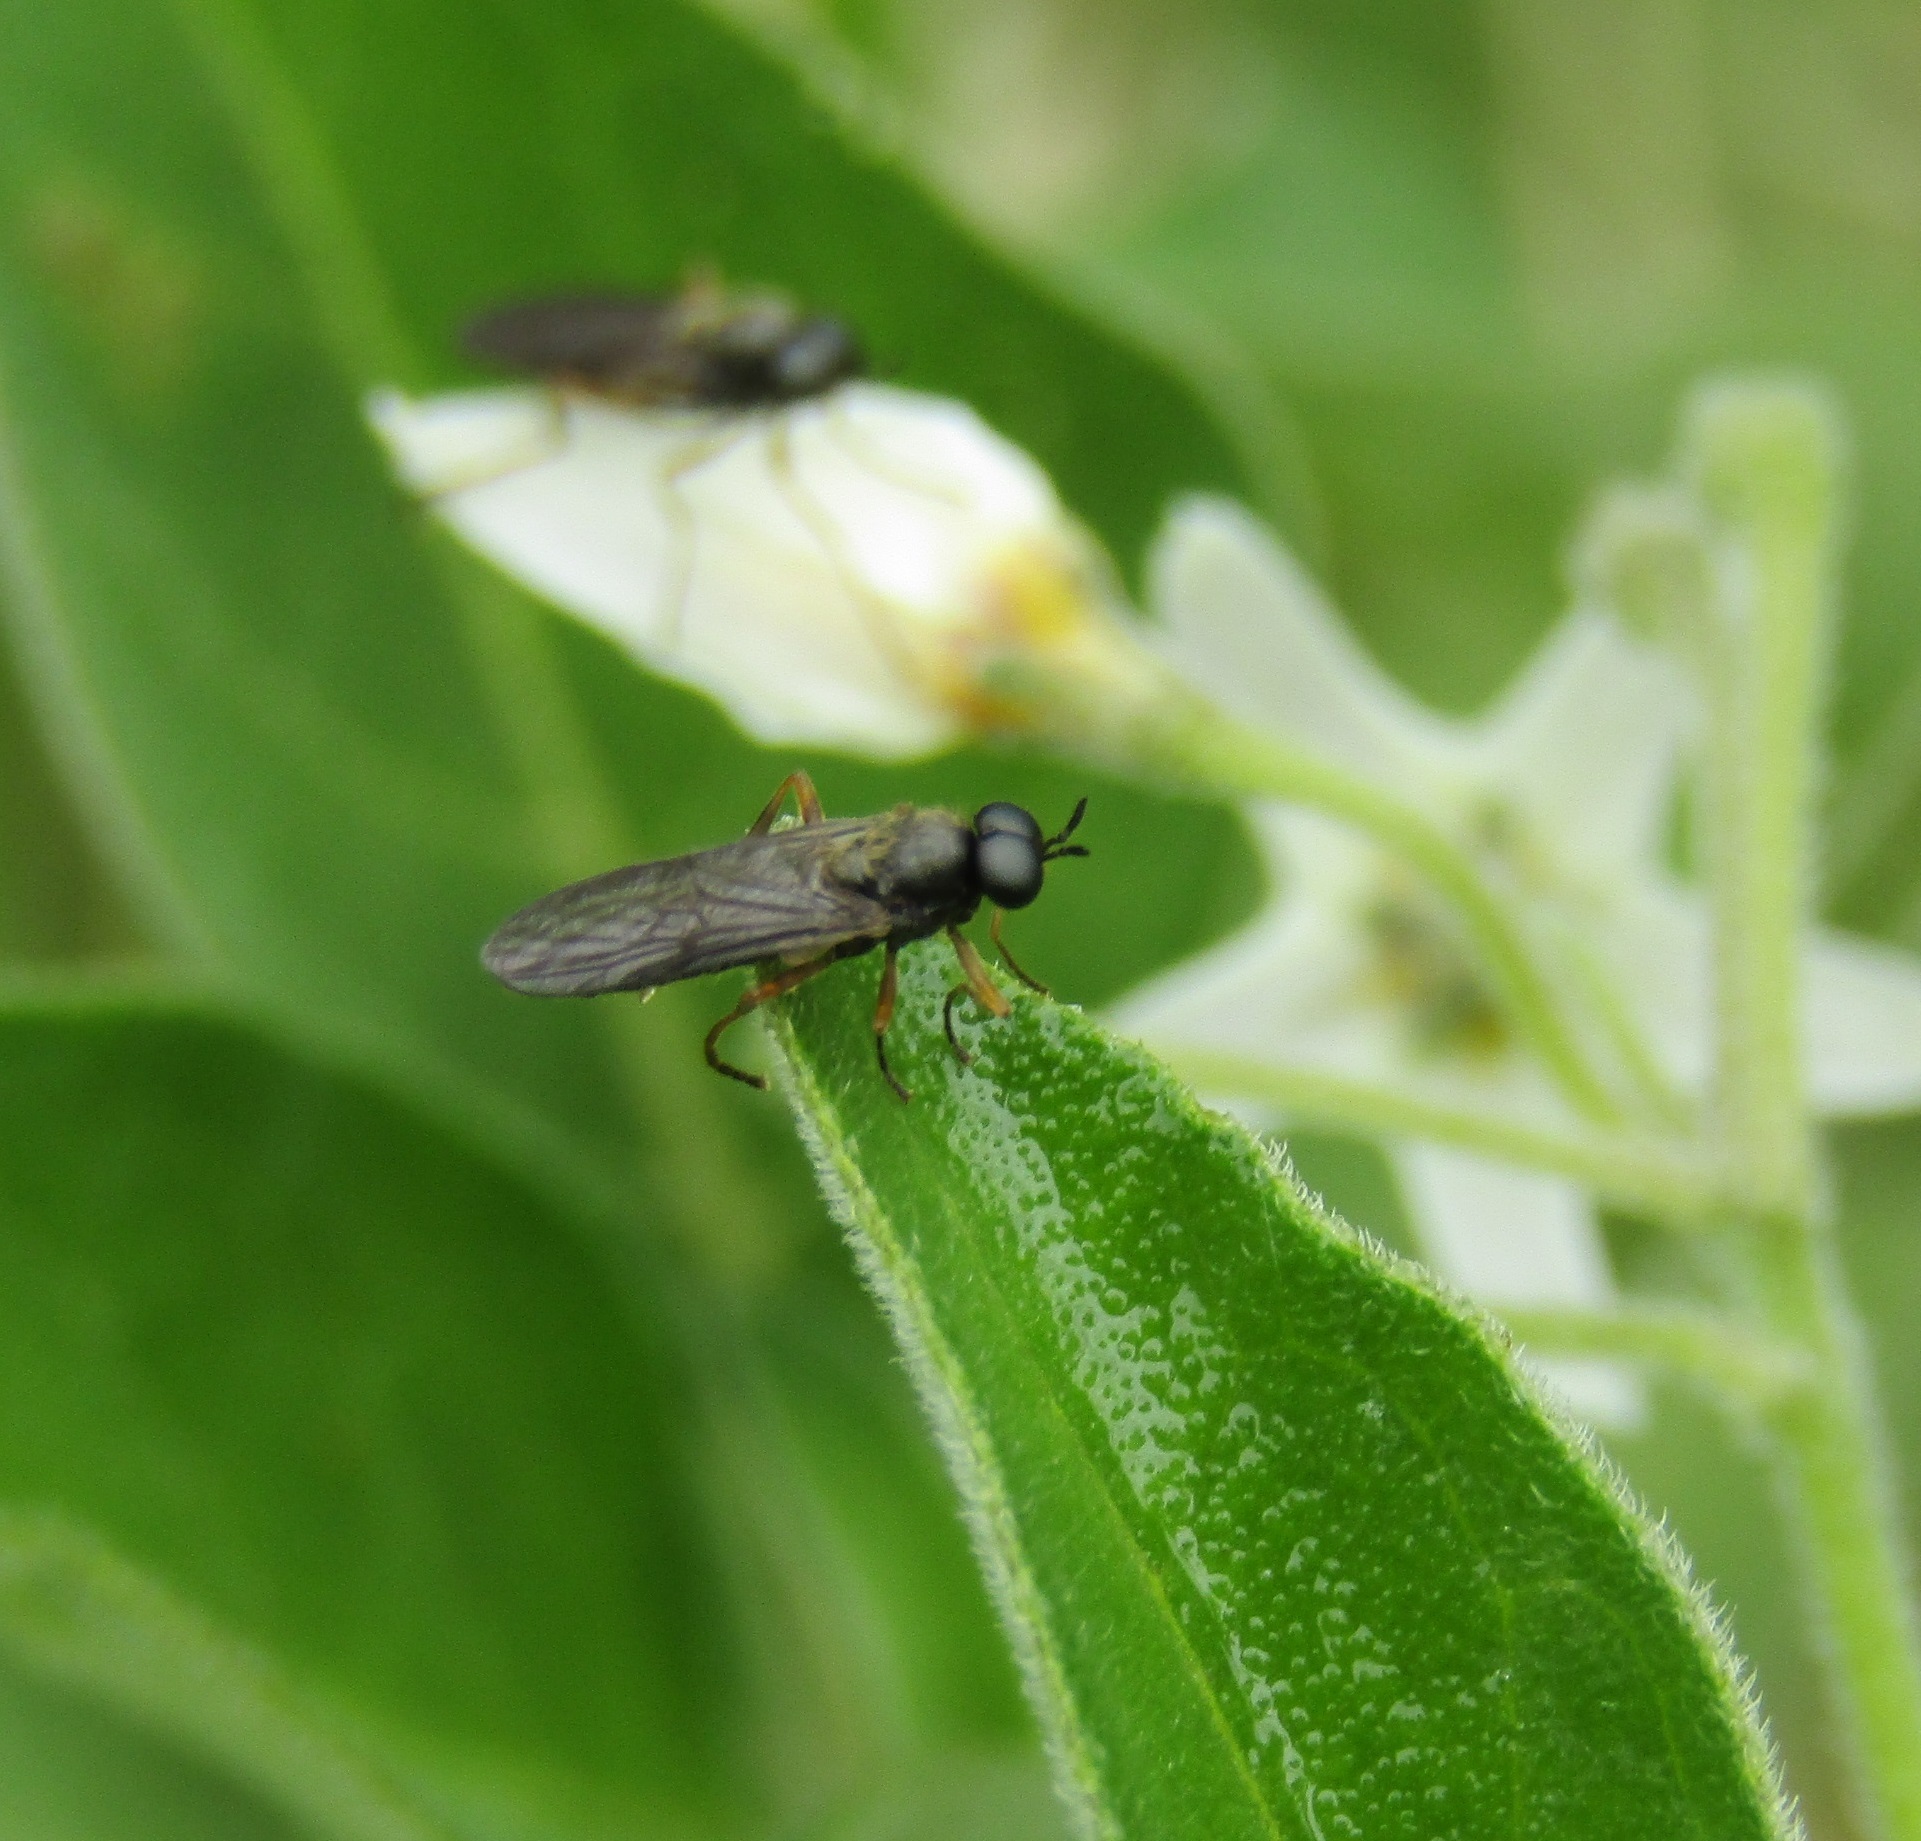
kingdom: Animalia
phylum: Arthropoda
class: Insecta
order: Diptera
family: Stratiomyidae
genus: Inopus
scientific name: Inopus rubriceps
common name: Soldier fly
